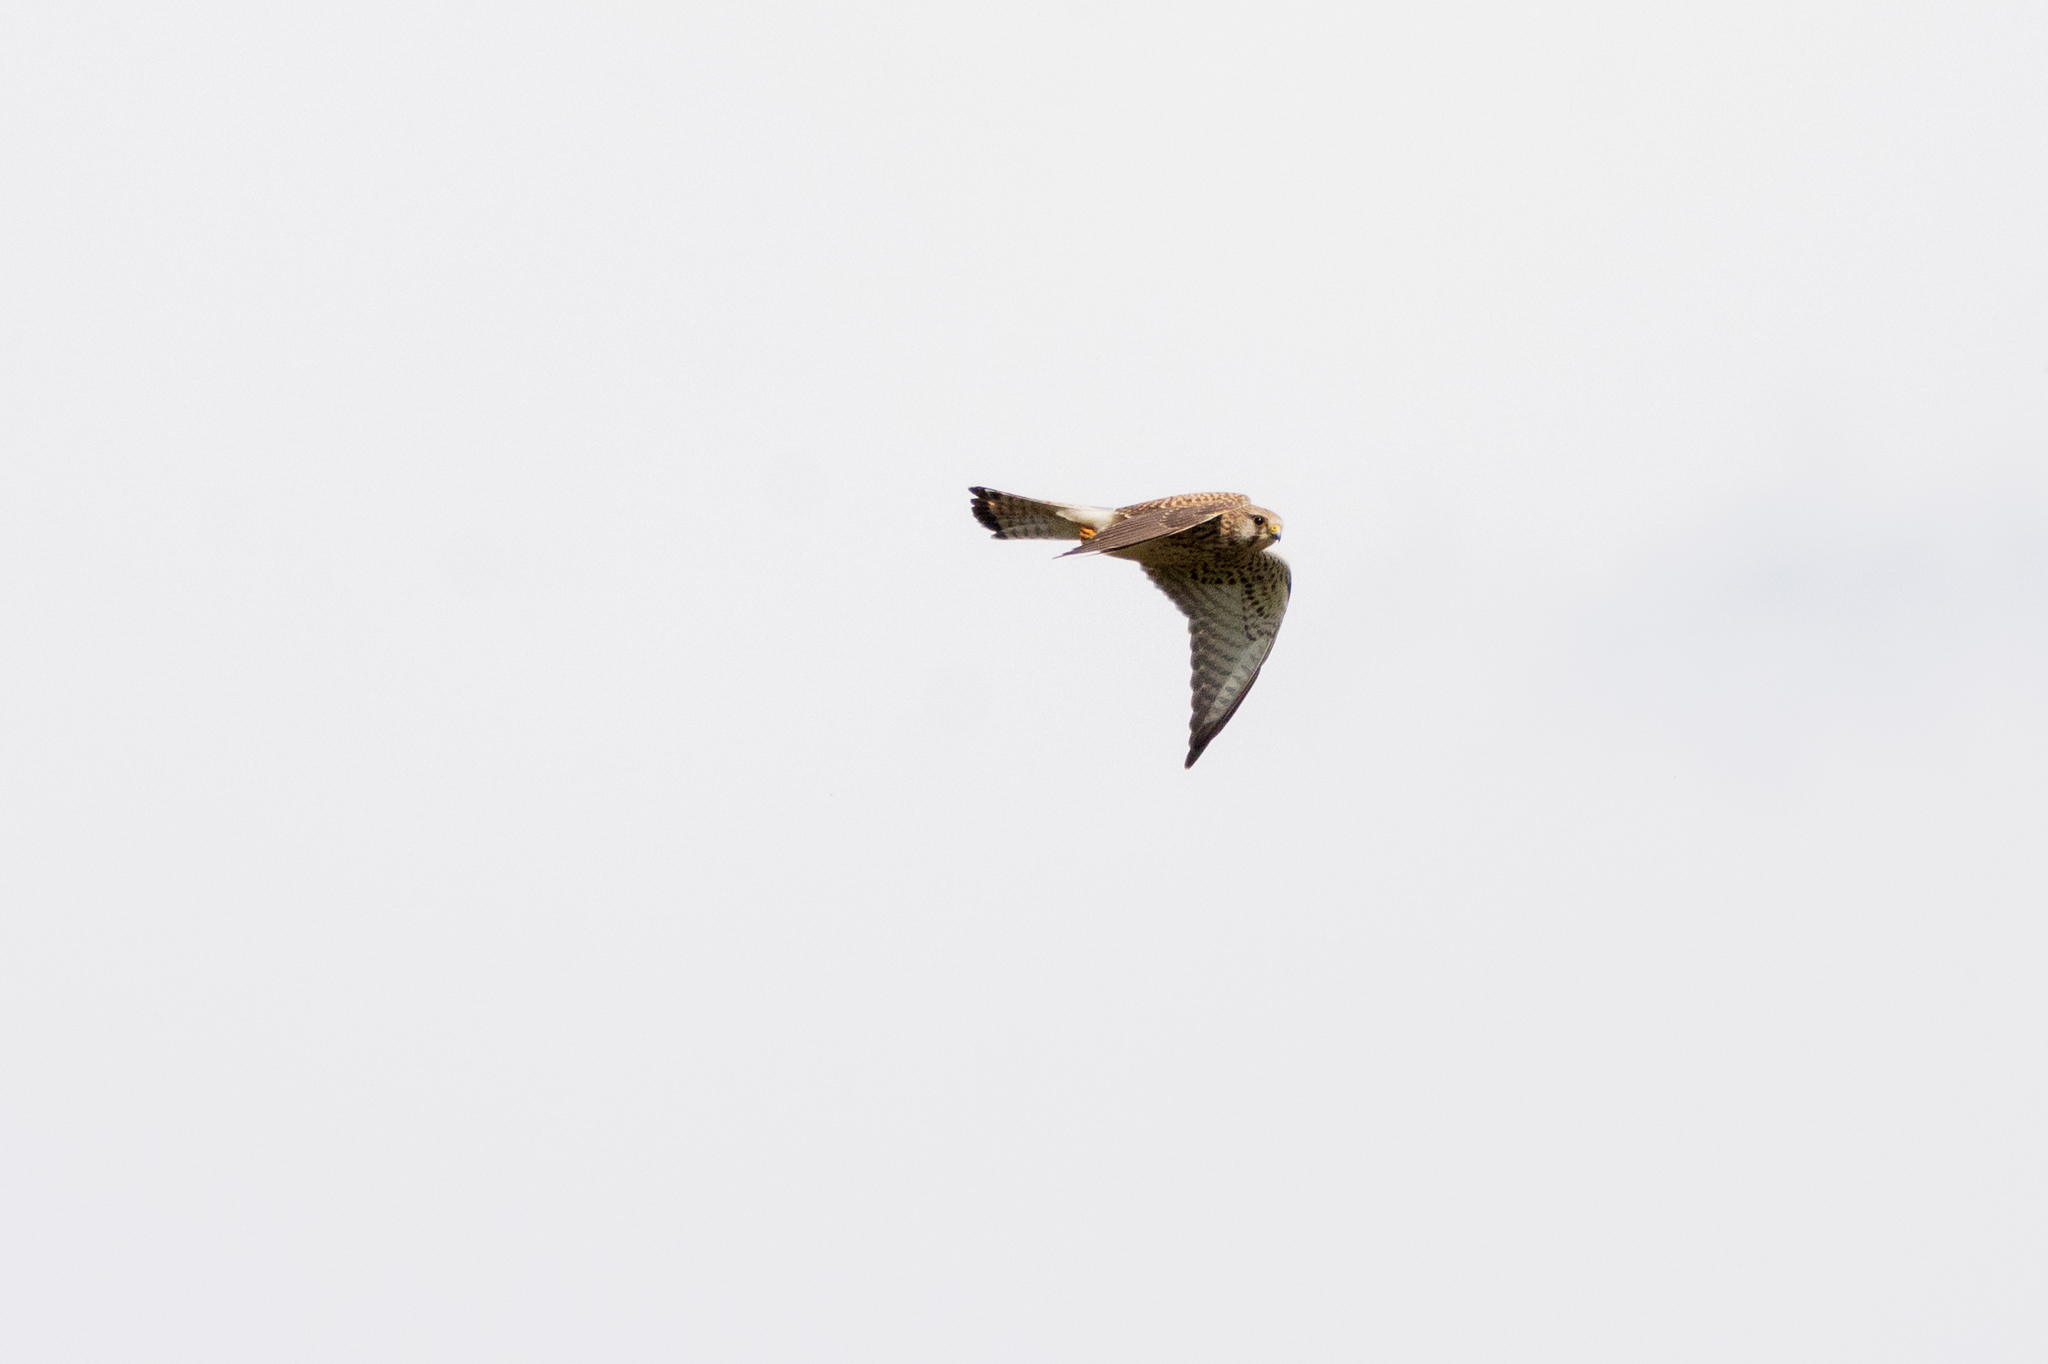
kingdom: Animalia
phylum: Chordata
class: Aves
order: Falconiformes
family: Falconidae
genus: Falco
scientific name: Falco tinnunculus
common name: Common kestrel
